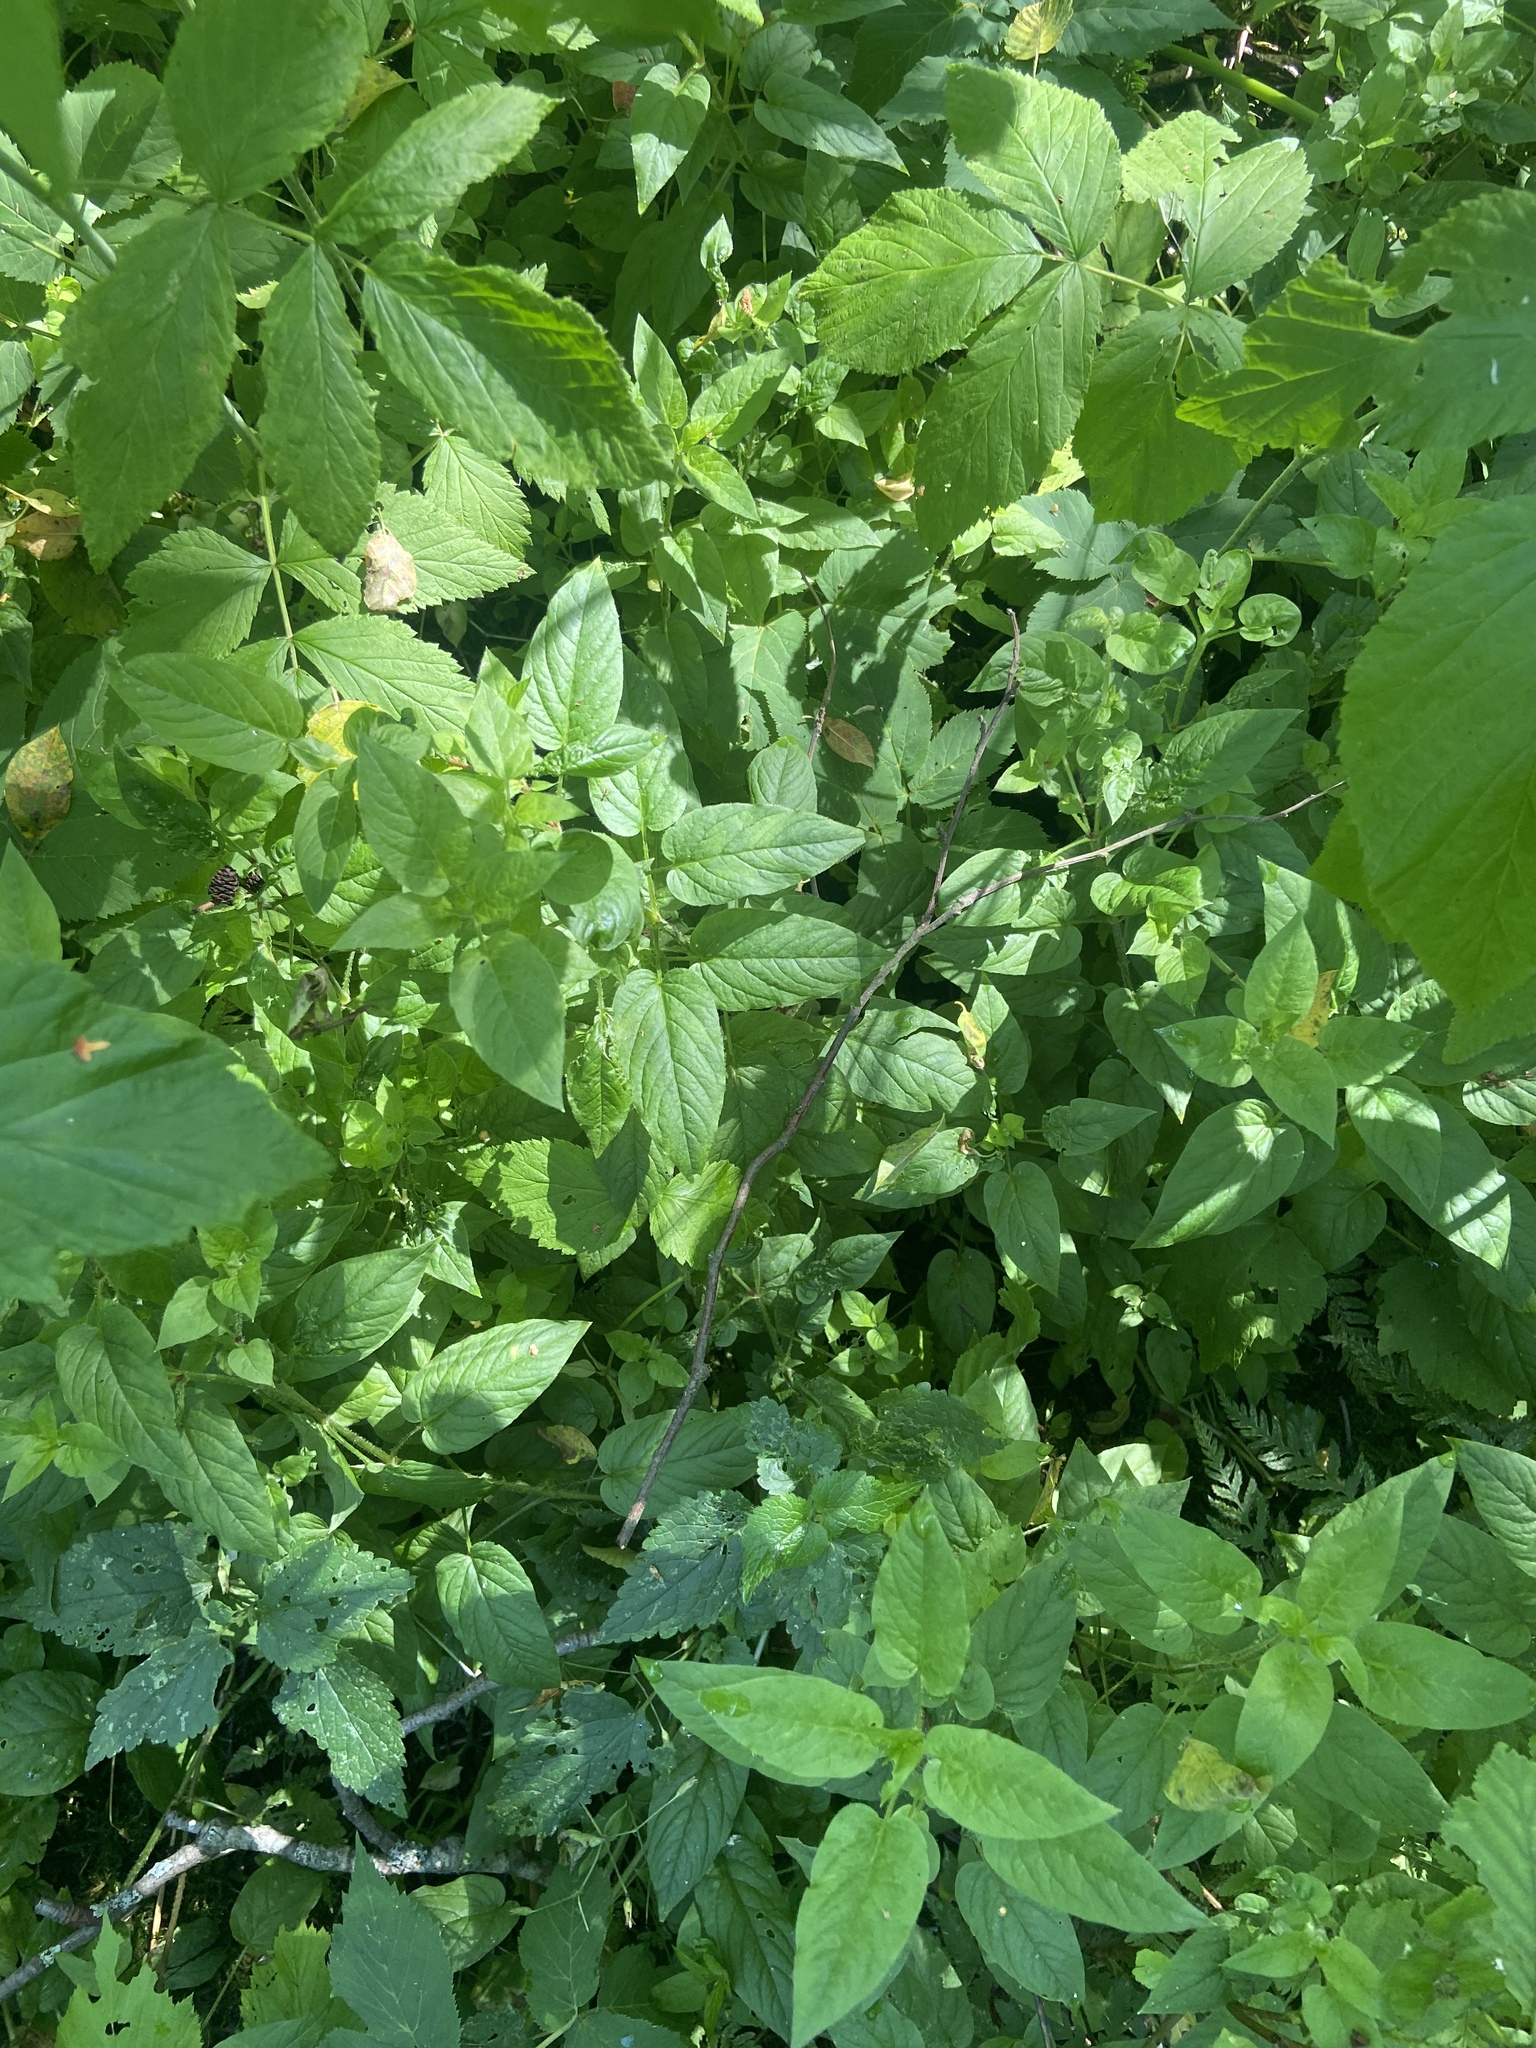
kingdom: Plantae
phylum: Tracheophyta
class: Magnoliopsida
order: Caryophyllales
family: Caryophyllaceae
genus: Stellaria
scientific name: Stellaria nemorum
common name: Wood stitchwort
